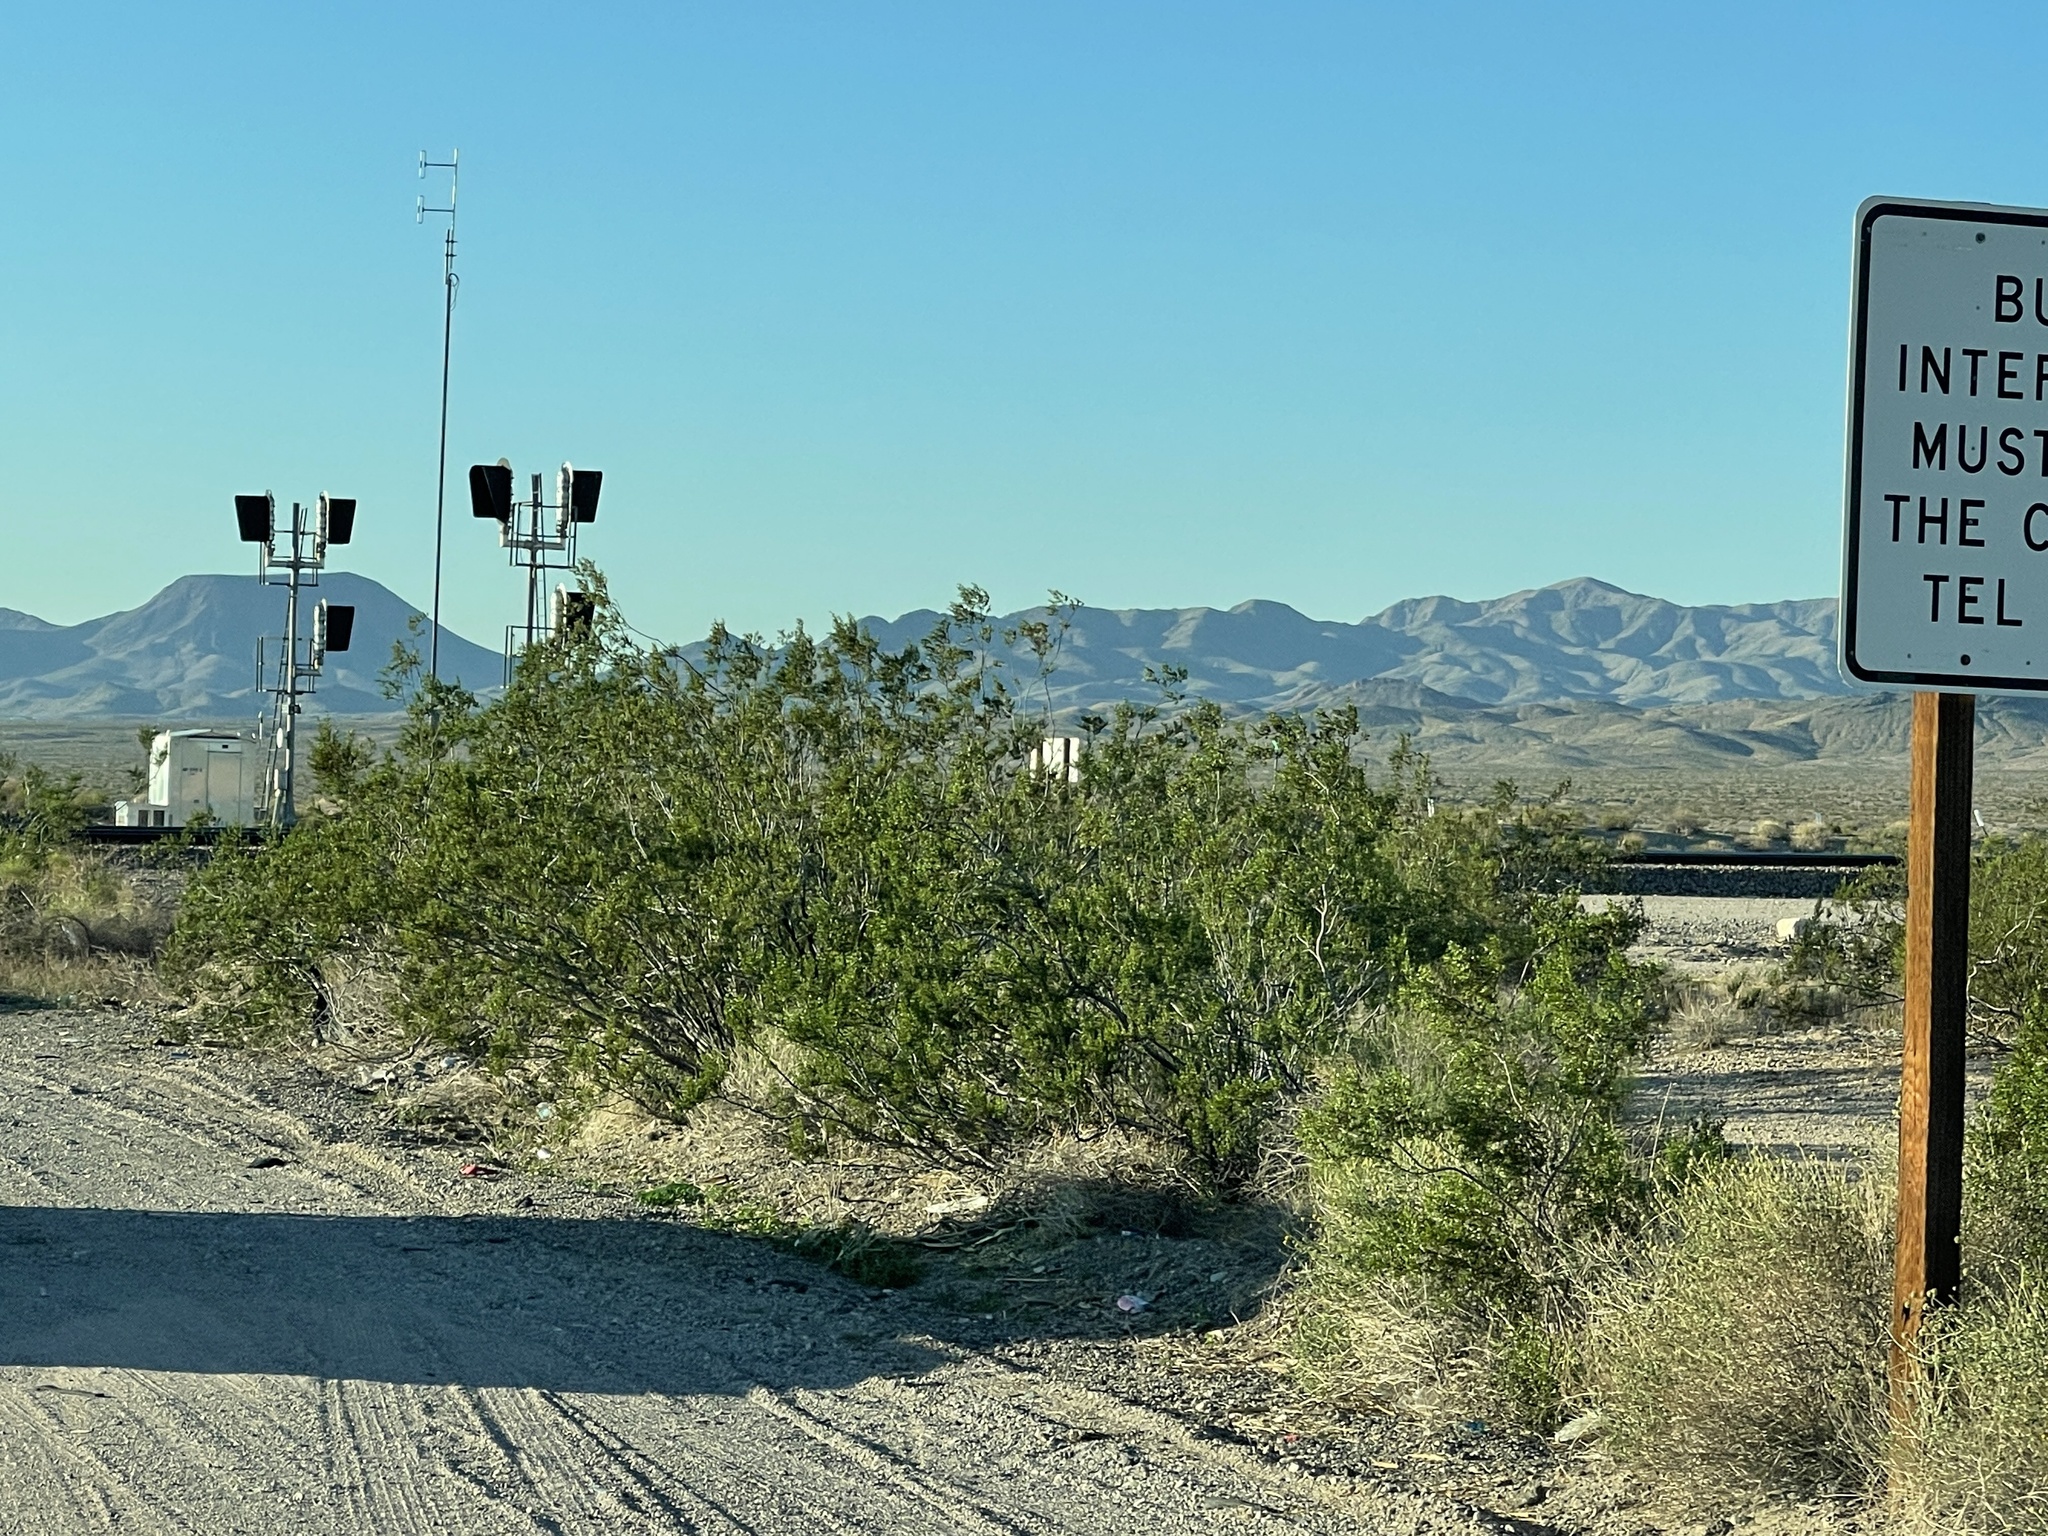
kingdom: Plantae
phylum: Tracheophyta
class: Magnoliopsida
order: Zygophyllales
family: Zygophyllaceae
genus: Larrea
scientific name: Larrea tridentata
